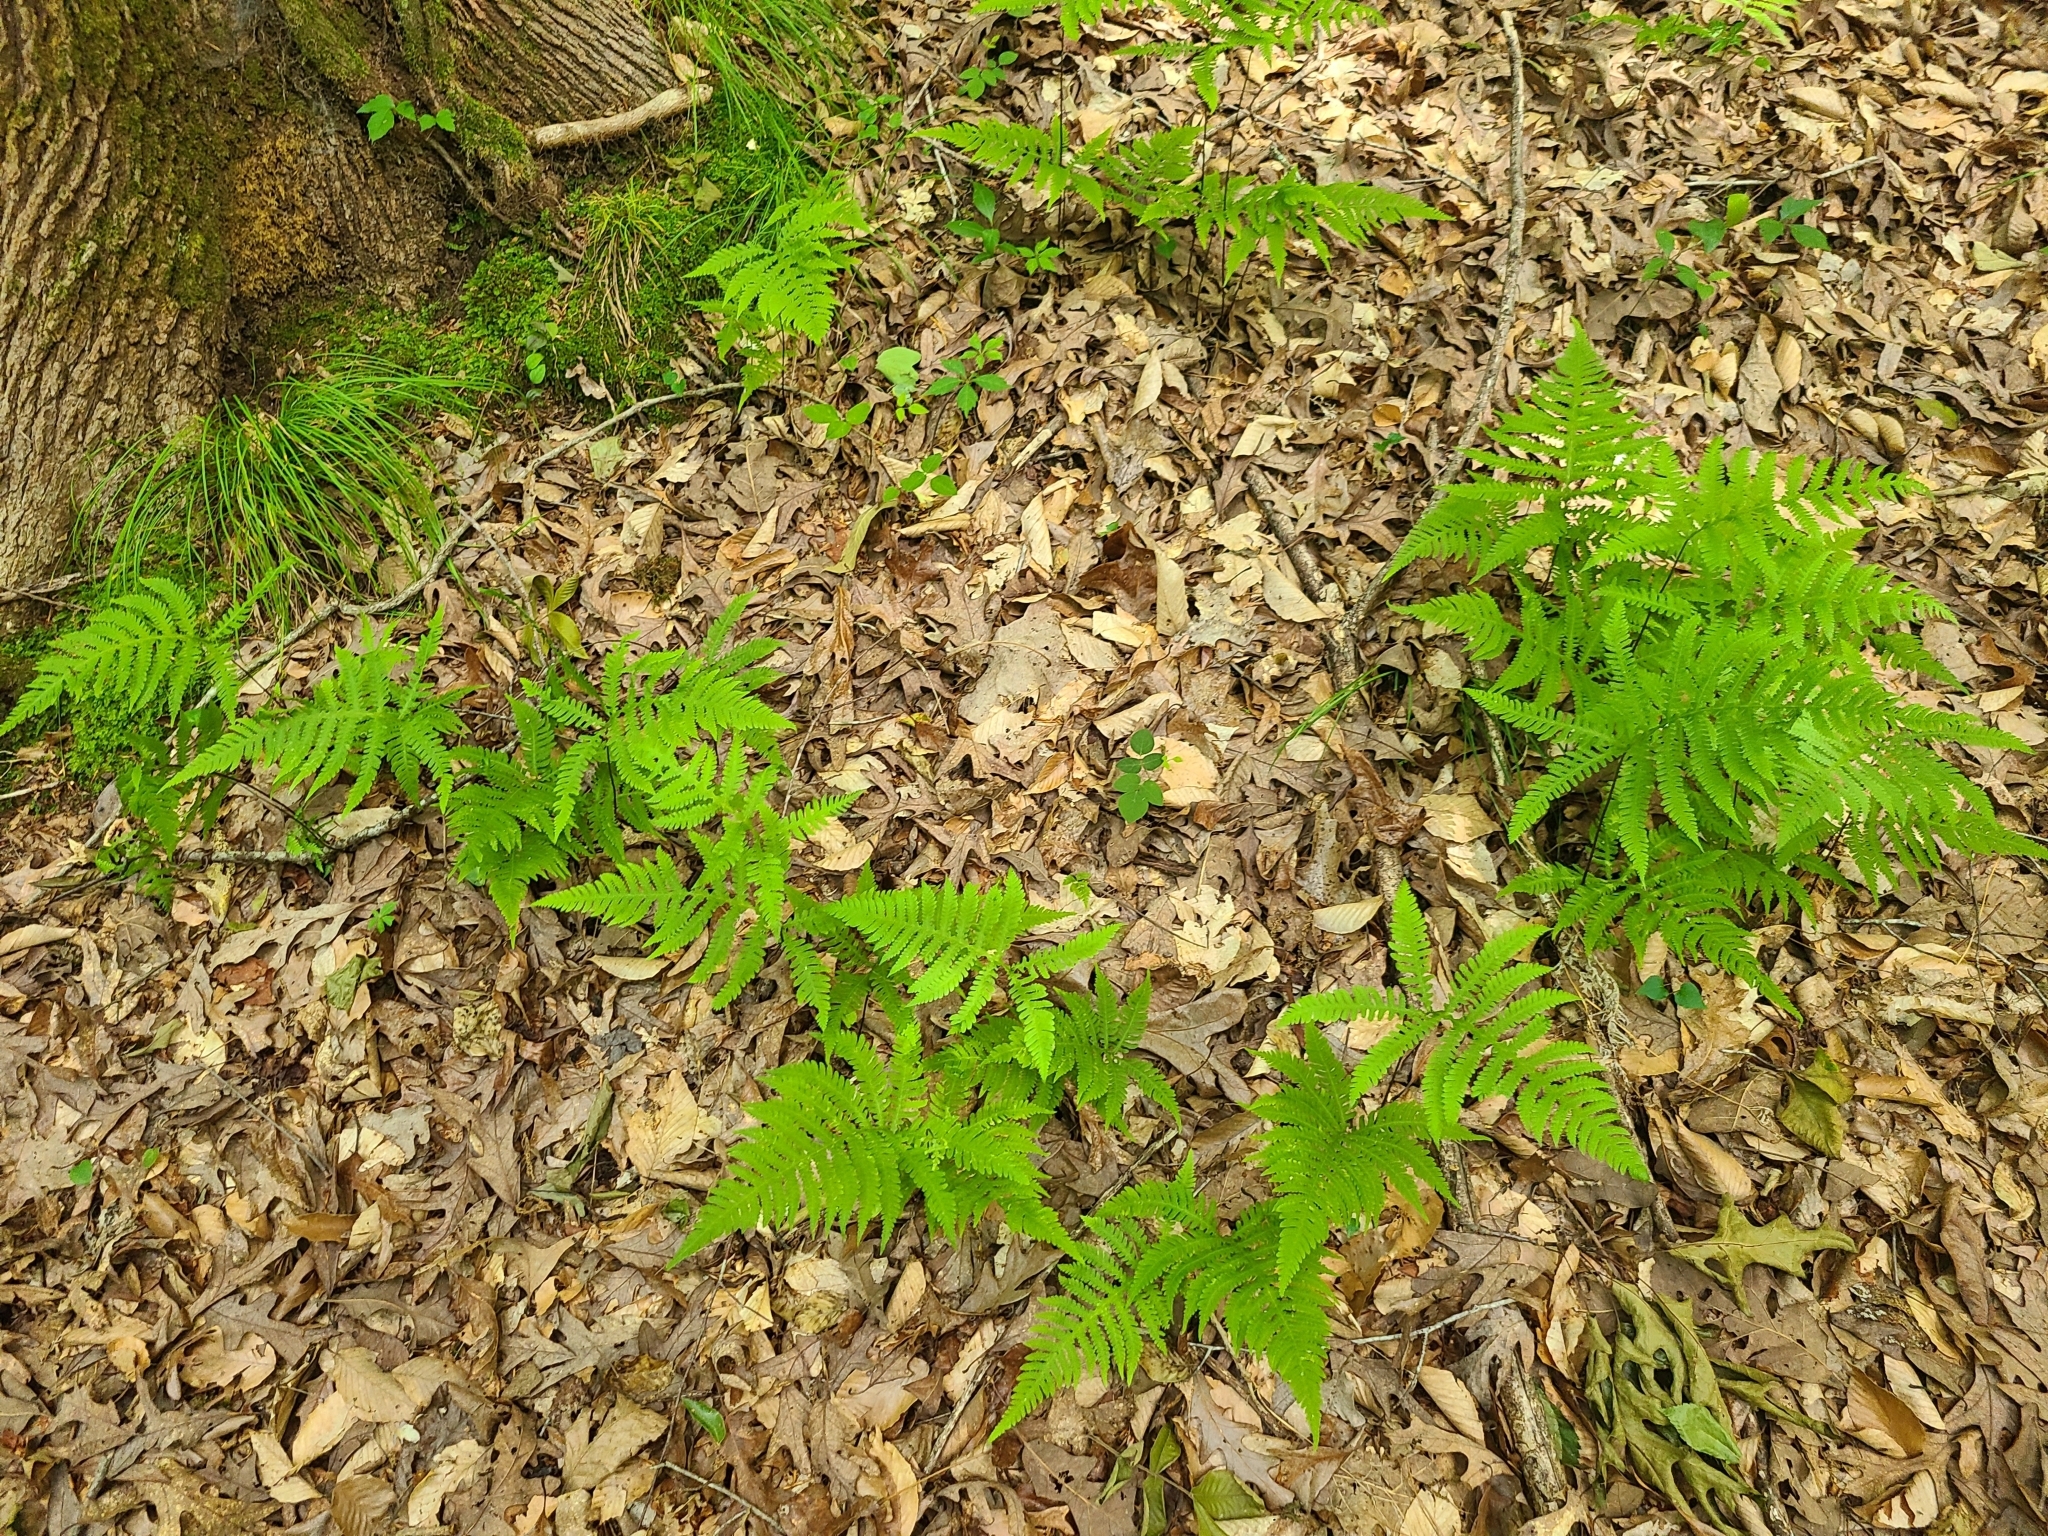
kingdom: Plantae
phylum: Tracheophyta
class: Polypodiopsida
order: Polypodiales
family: Thelypteridaceae
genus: Phegopteris
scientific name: Phegopteris hexagonoptera
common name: Broad beech fern
